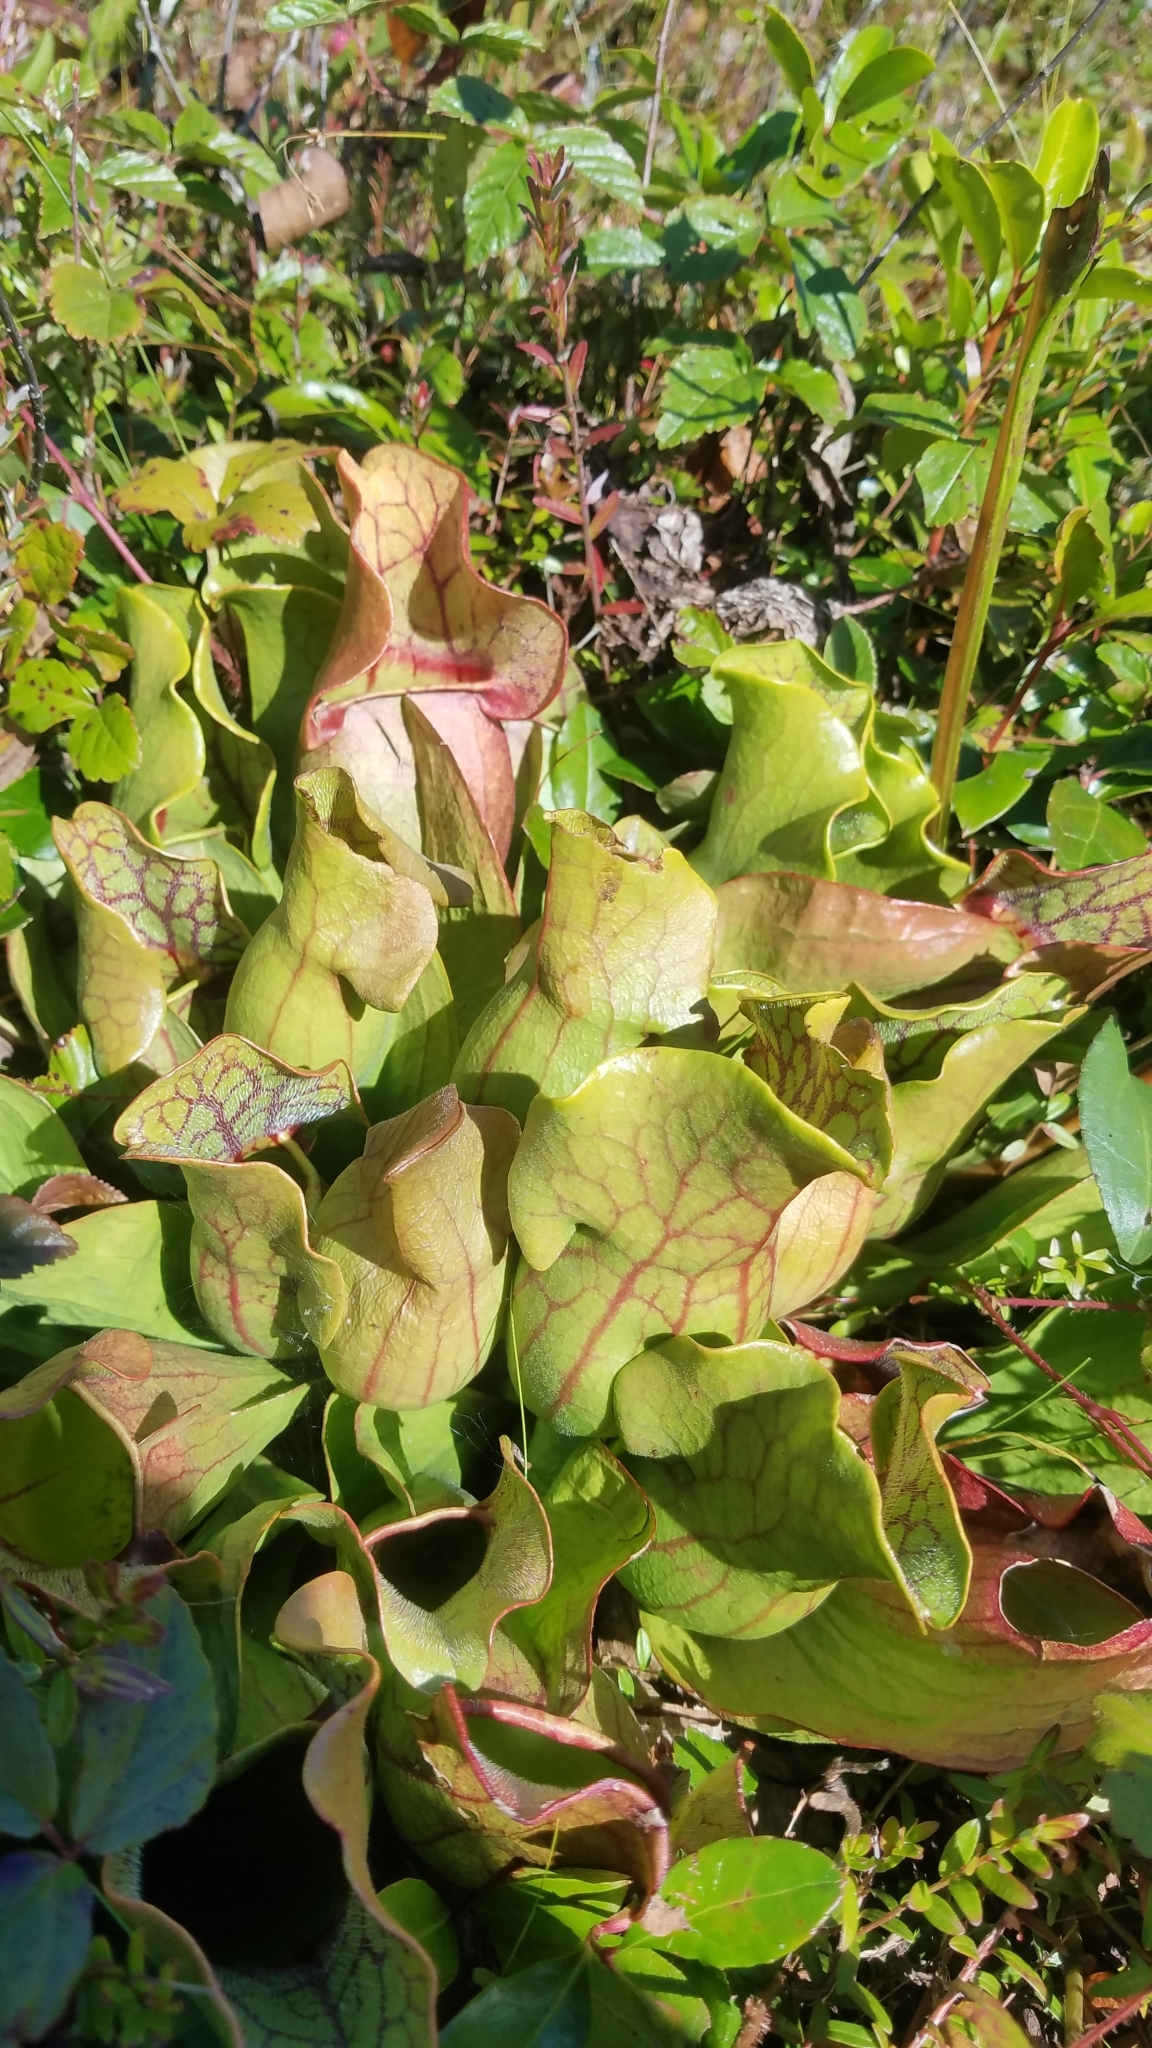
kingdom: Plantae
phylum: Tracheophyta
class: Magnoliopsida
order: Ericales
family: Sarraceniaceae
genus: Sarracenia
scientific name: Sarracenia purpurea
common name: Pitcherplant
